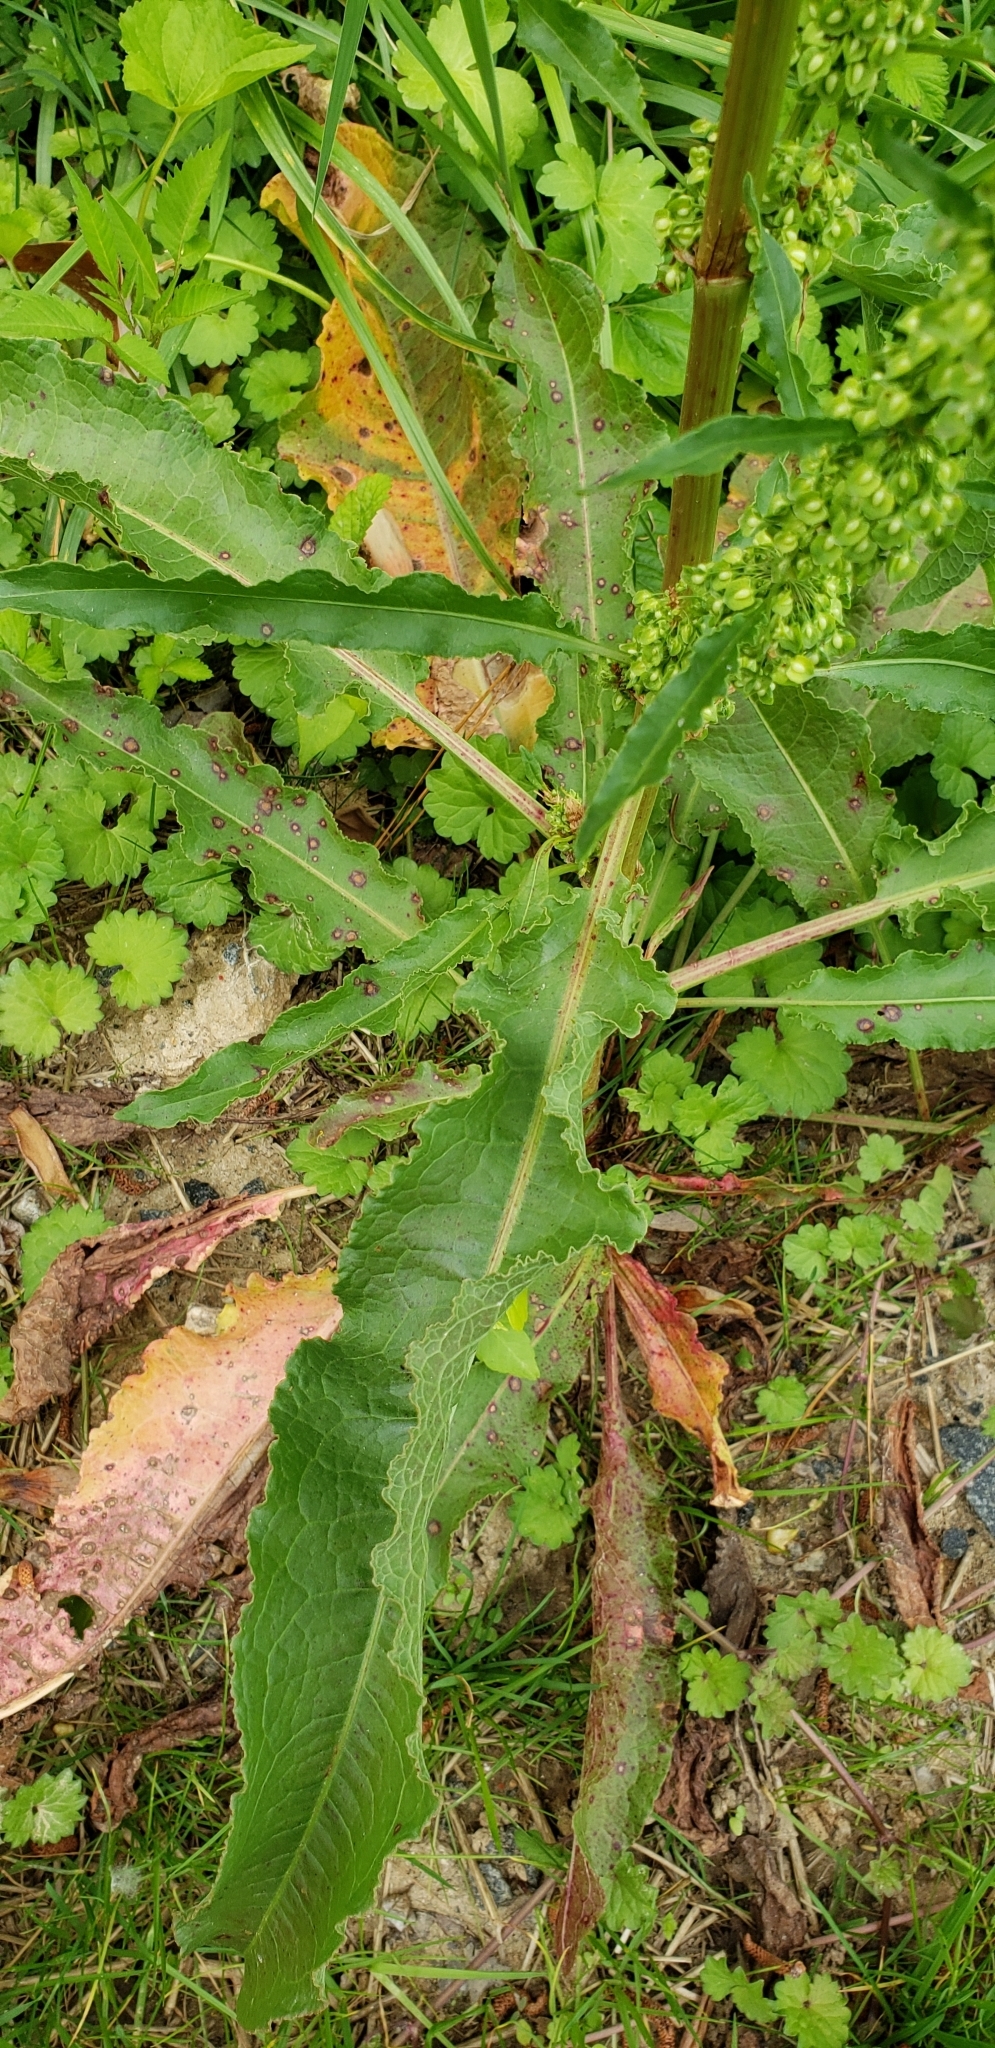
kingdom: Plantae
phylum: Tracheophyta
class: Magnoliopsida
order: Caryophyllales
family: Polygonaceae
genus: Rumex
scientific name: Rumex crispus
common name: Curled dock
